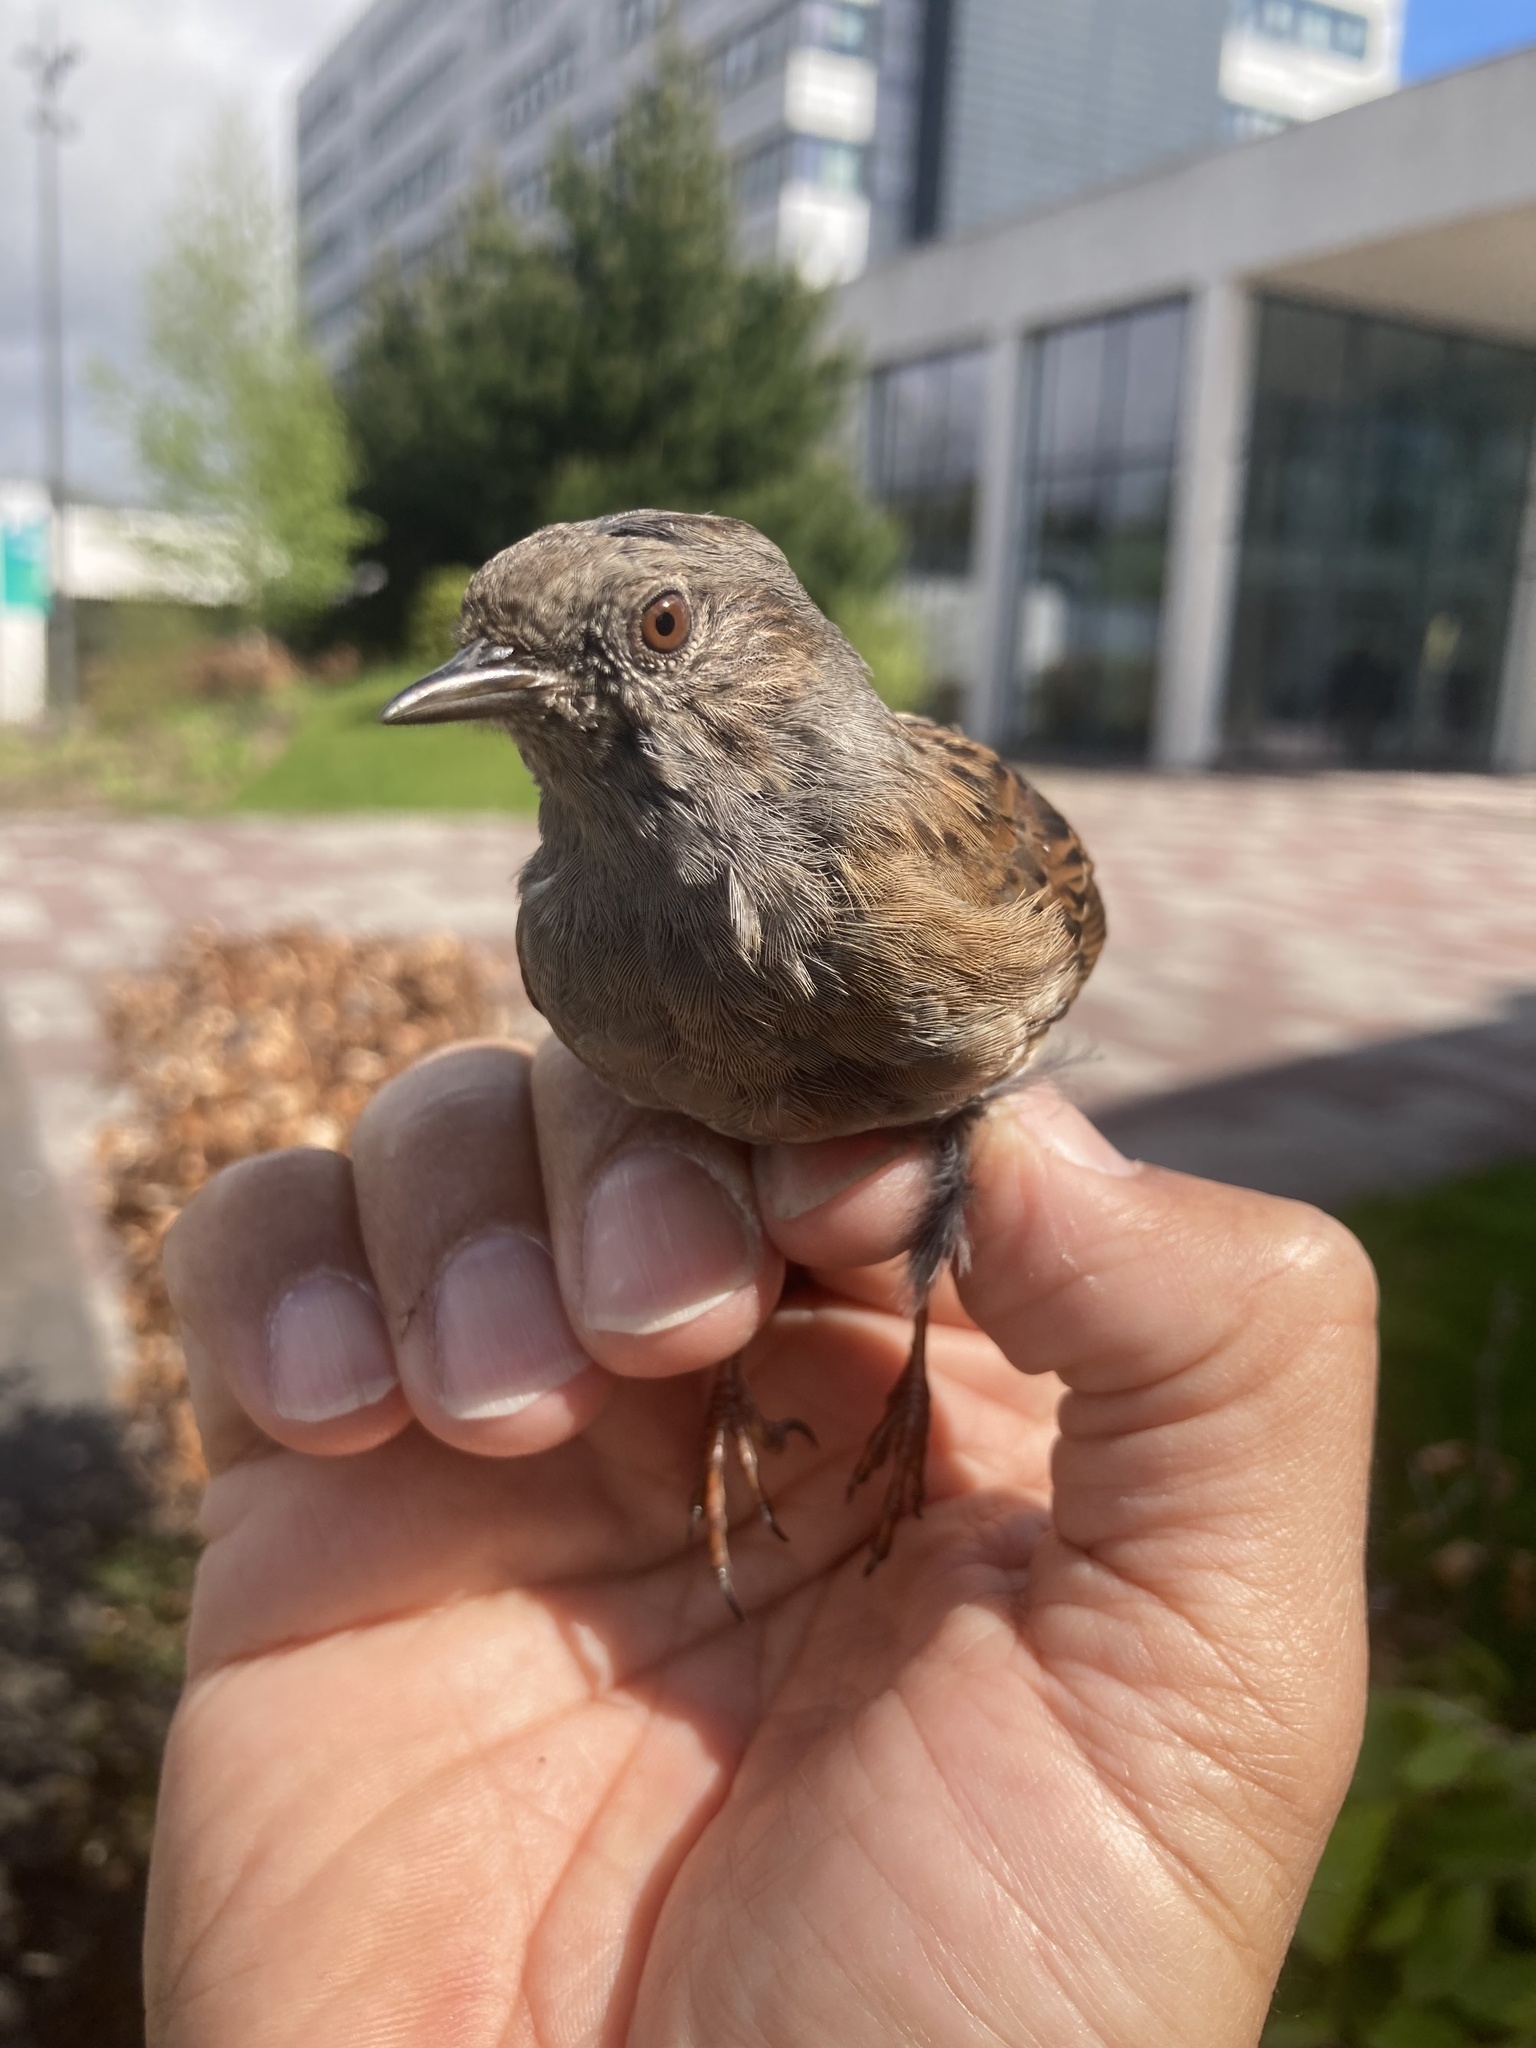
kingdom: Animalia
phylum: Chordata
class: Aves
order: Passeriformes
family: Prunellidae
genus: Prunella
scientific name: Prunella modularis
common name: Dunnock
